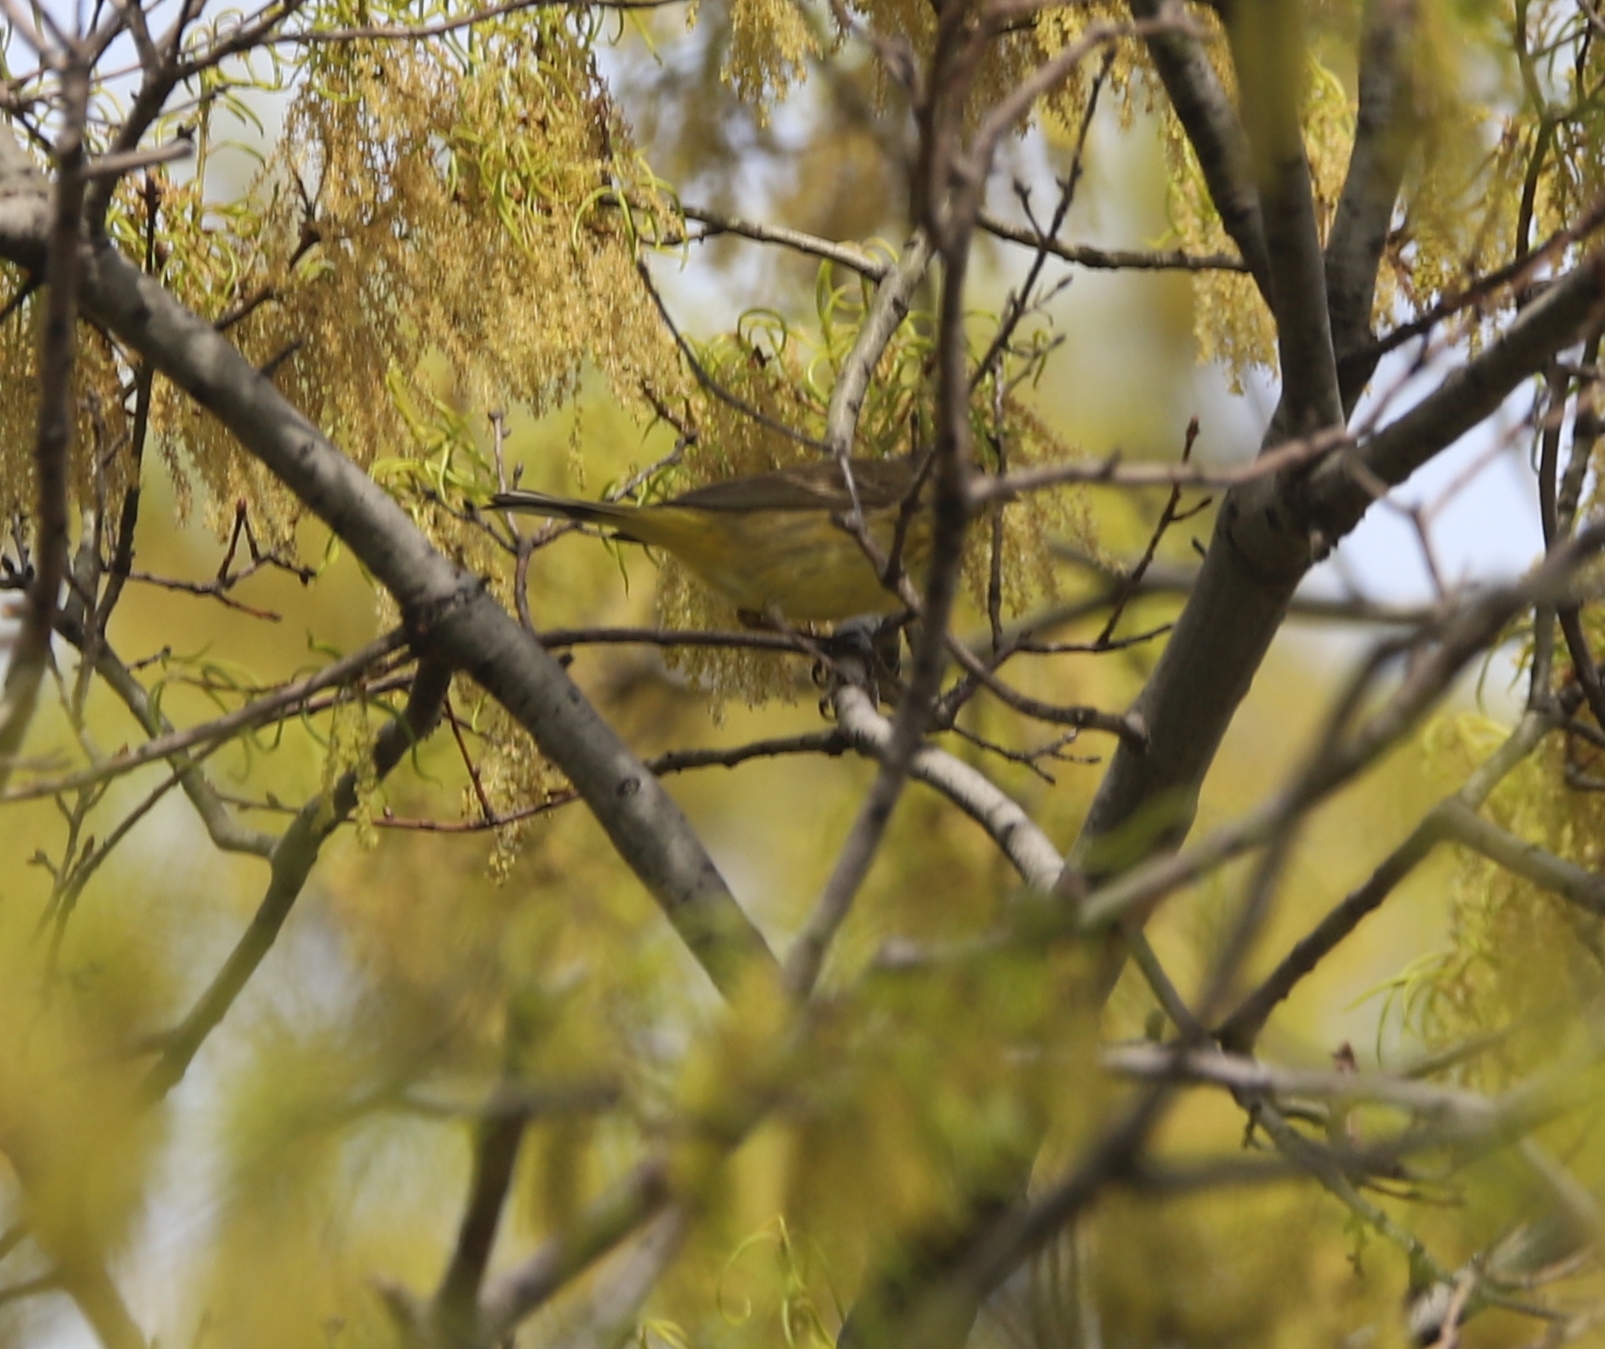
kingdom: Animalia
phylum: Chordata
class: Aves
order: Passeriformes
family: Parulidae
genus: Setophaga
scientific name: Setophaga palmarum
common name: Palm warbler
